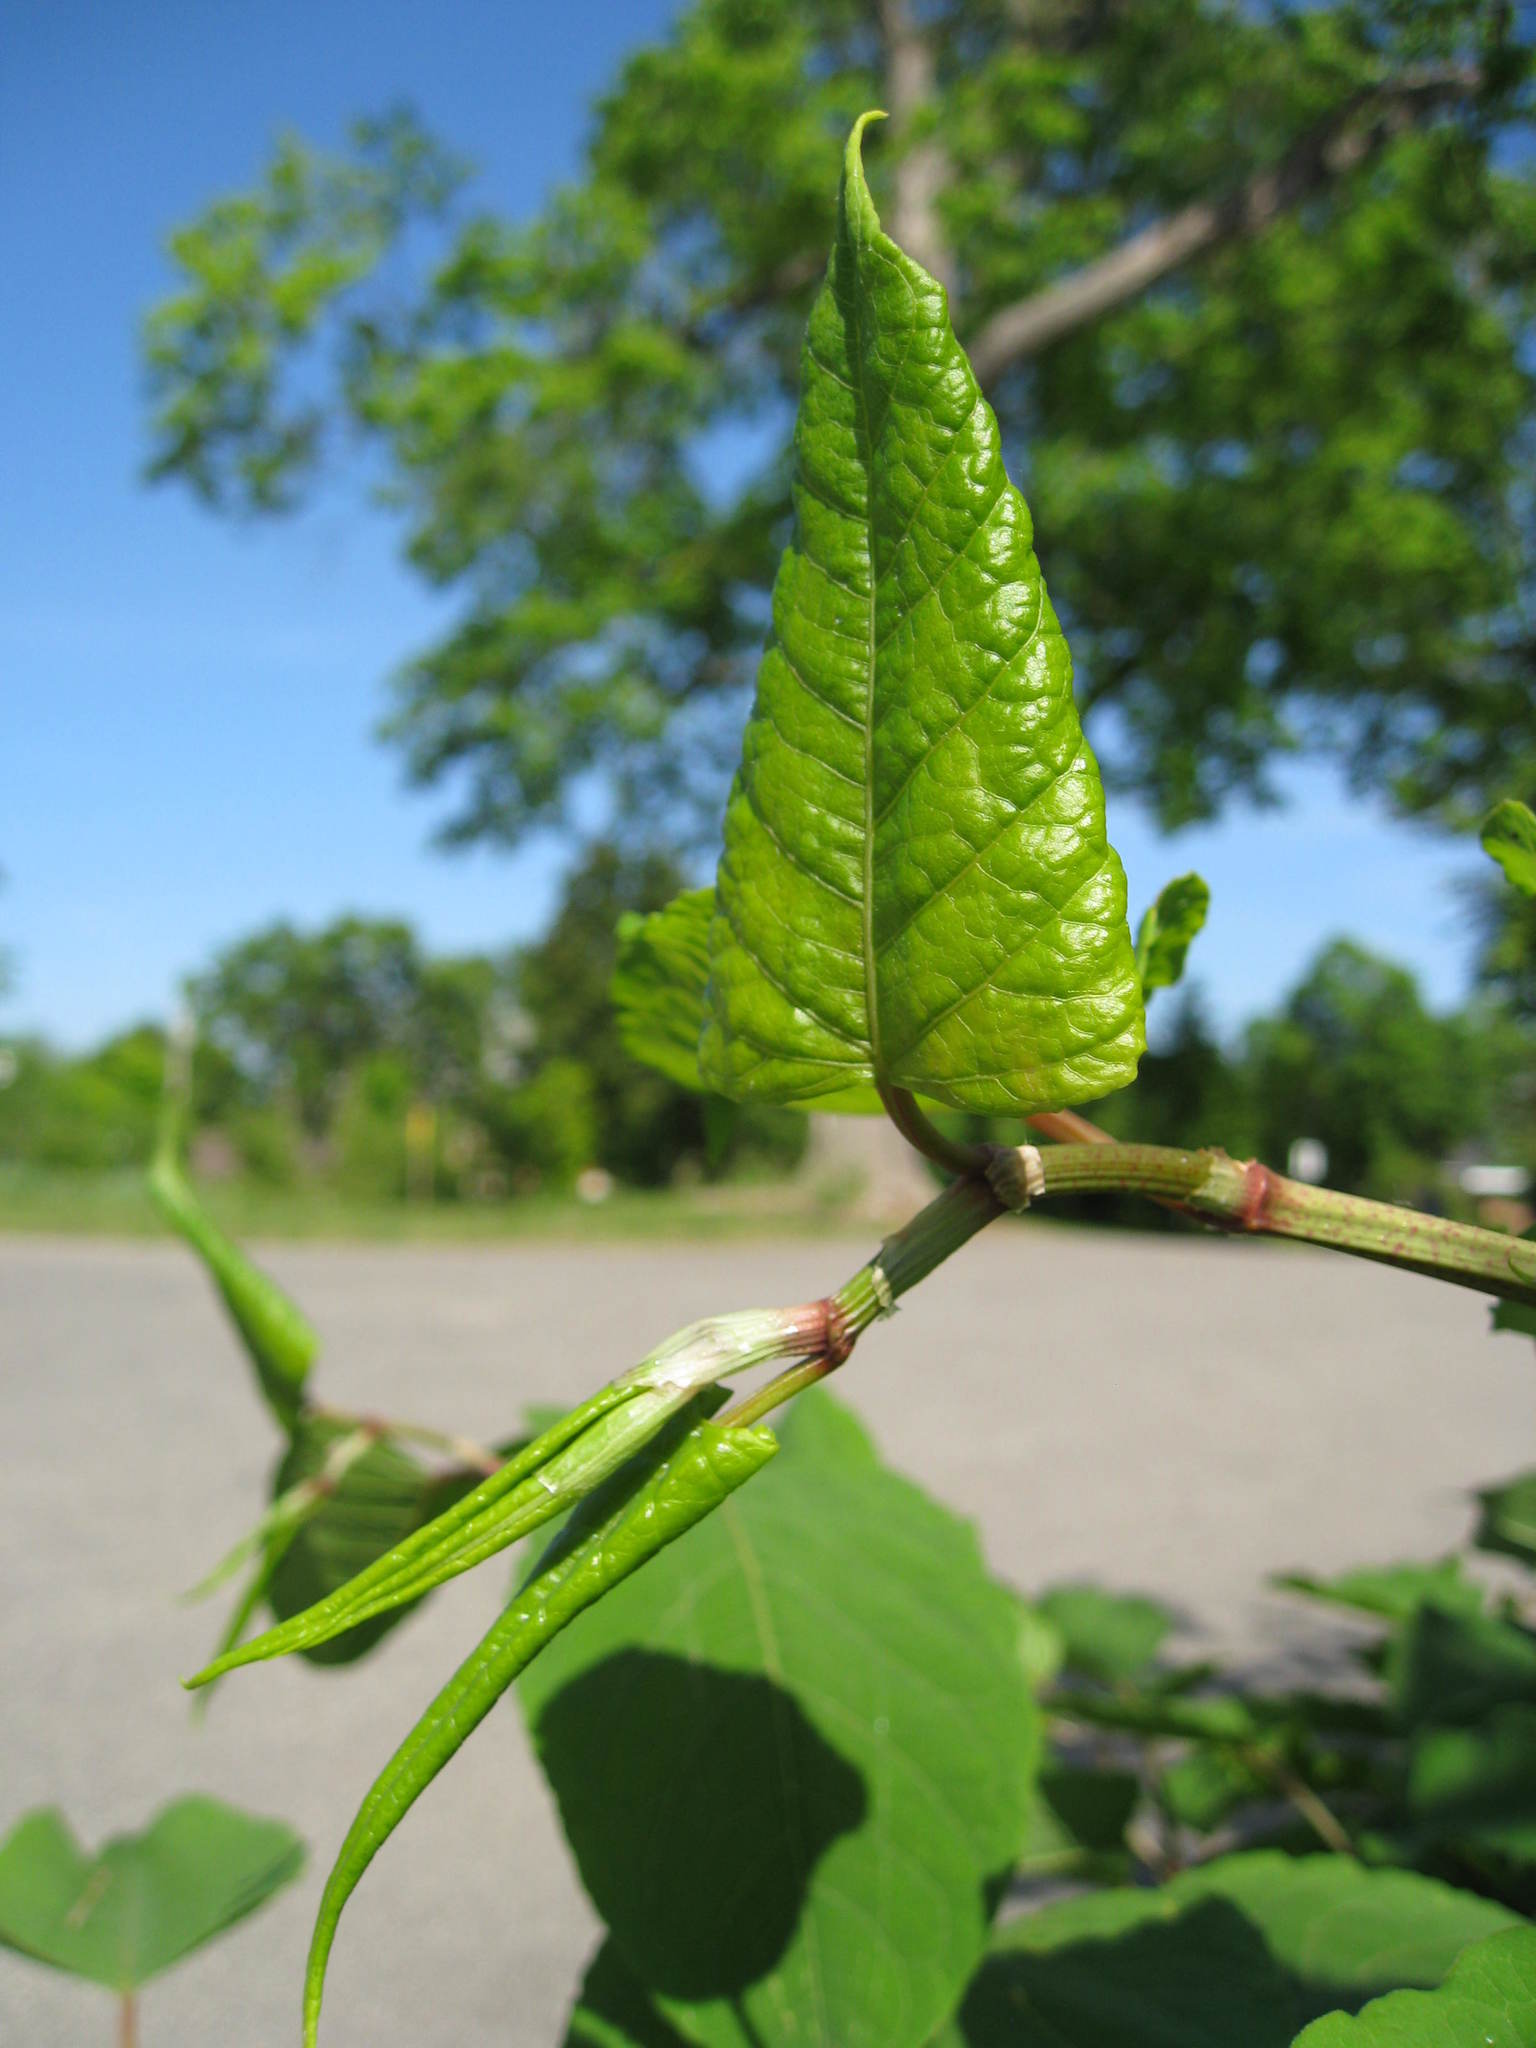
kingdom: Plantae
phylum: Tracheophyta
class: Magnoliopsida
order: Caryophyllales
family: Polygonaceae
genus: Reynoutria
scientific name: Reynoutria japonica
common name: Japanese knotweed
